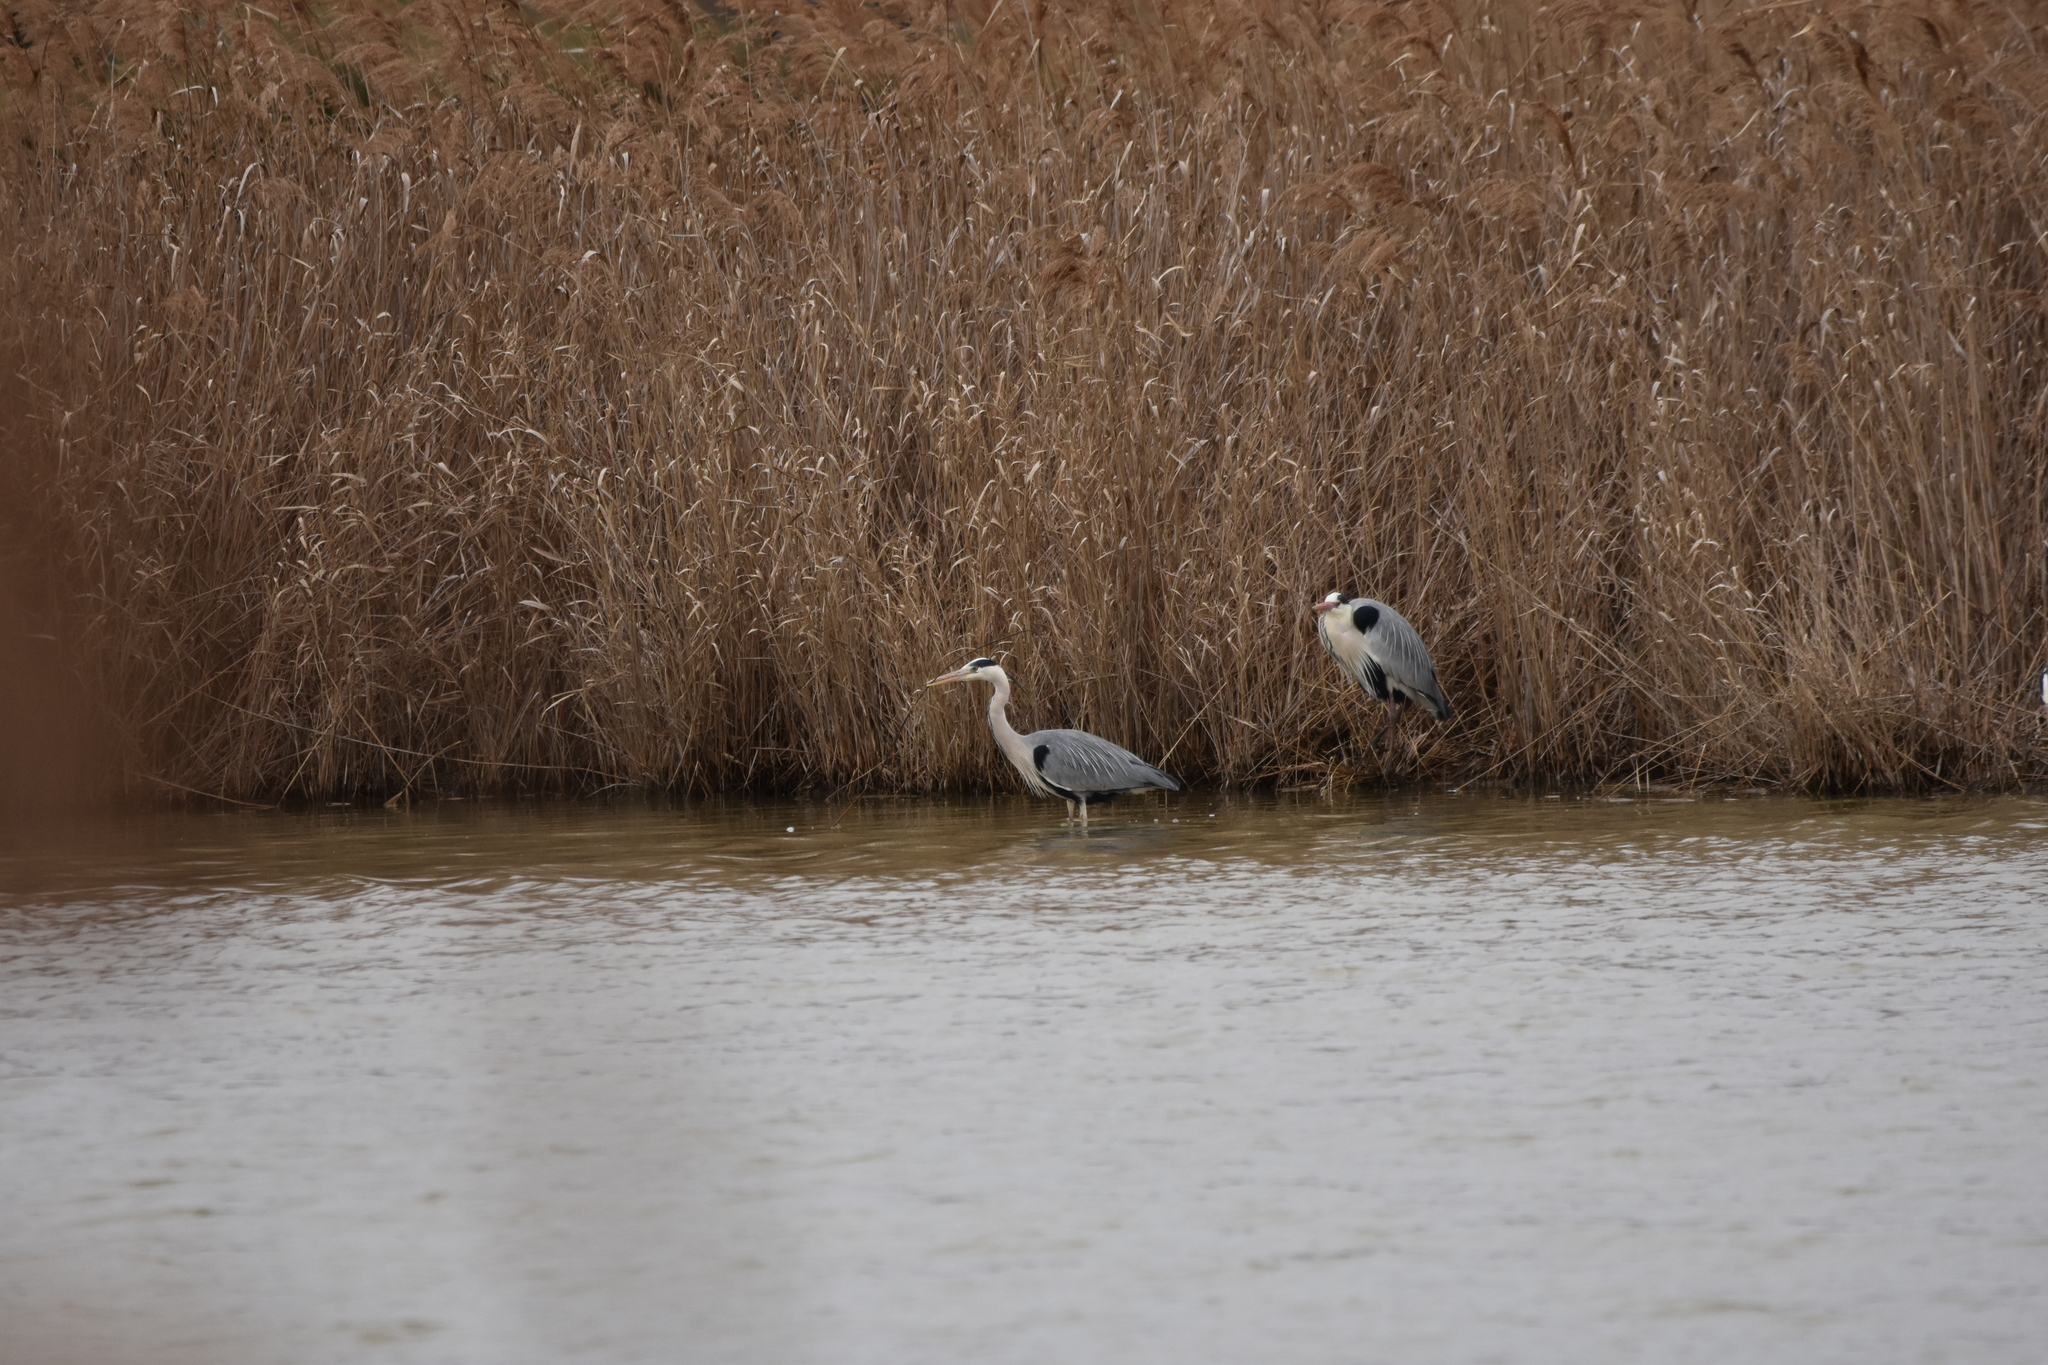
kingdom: Animalia
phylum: Chordata
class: Aves
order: Pelecaniformes
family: Ardeidae
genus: Ardea
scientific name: Ardea cinerea
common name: Grey heron
